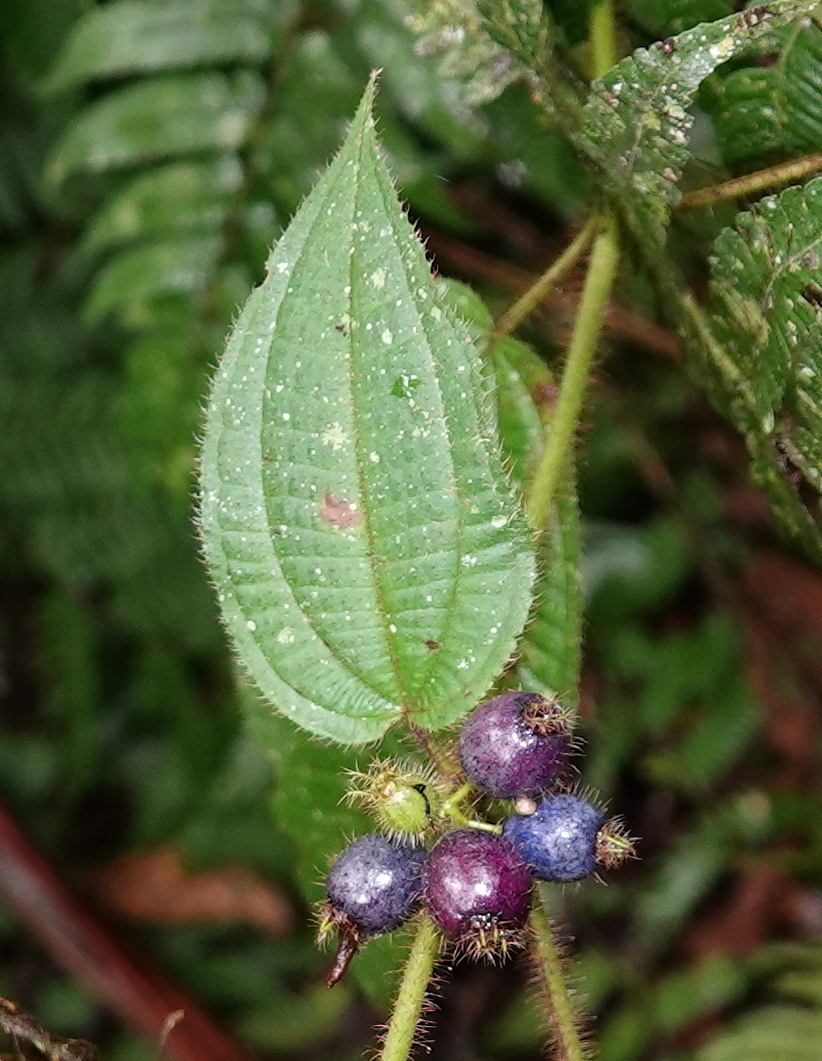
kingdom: Plantae
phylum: Tracheophyta
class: Magnoliopsida
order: Myrtales
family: Melastomataceae
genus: Miconia
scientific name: Miconia crenata
